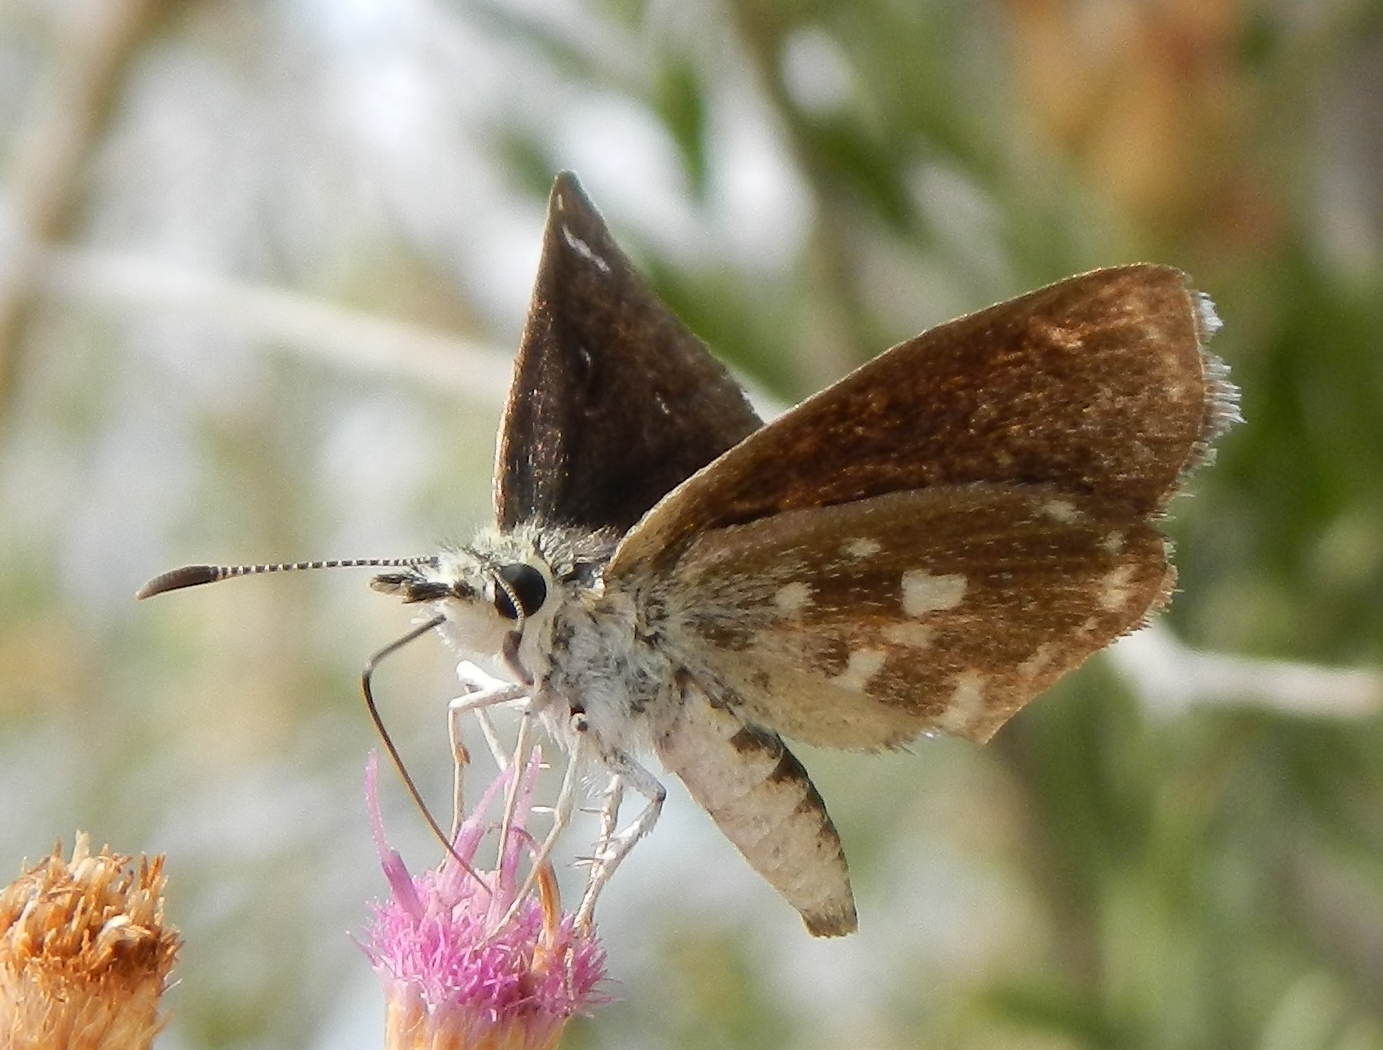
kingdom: Animalia
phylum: Arthropoda
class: Insecta
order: Lepidoptera
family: Hesperiidae
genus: Pholisora
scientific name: Pholisora libya
